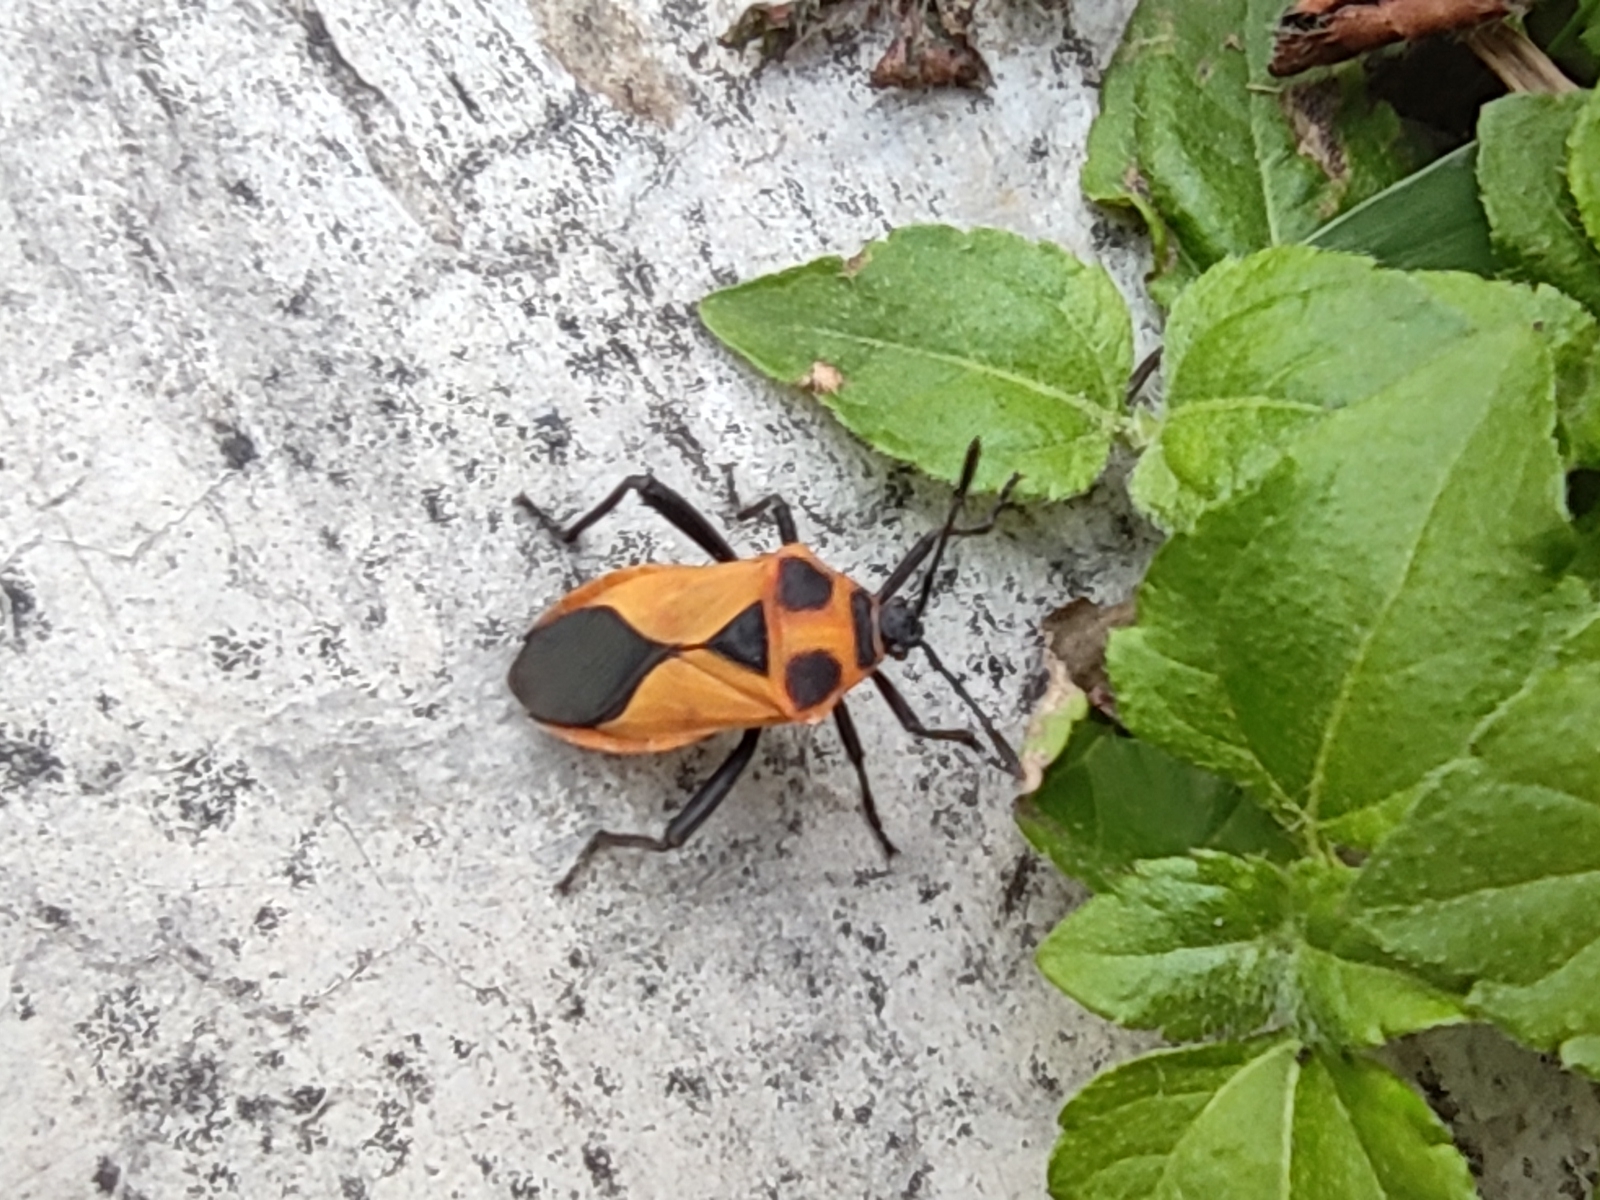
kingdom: Animalia
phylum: Arthropoda
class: Insecta
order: Hemiptera
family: Coreidae
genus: Sagotylus
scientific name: Sagotylus confluens
